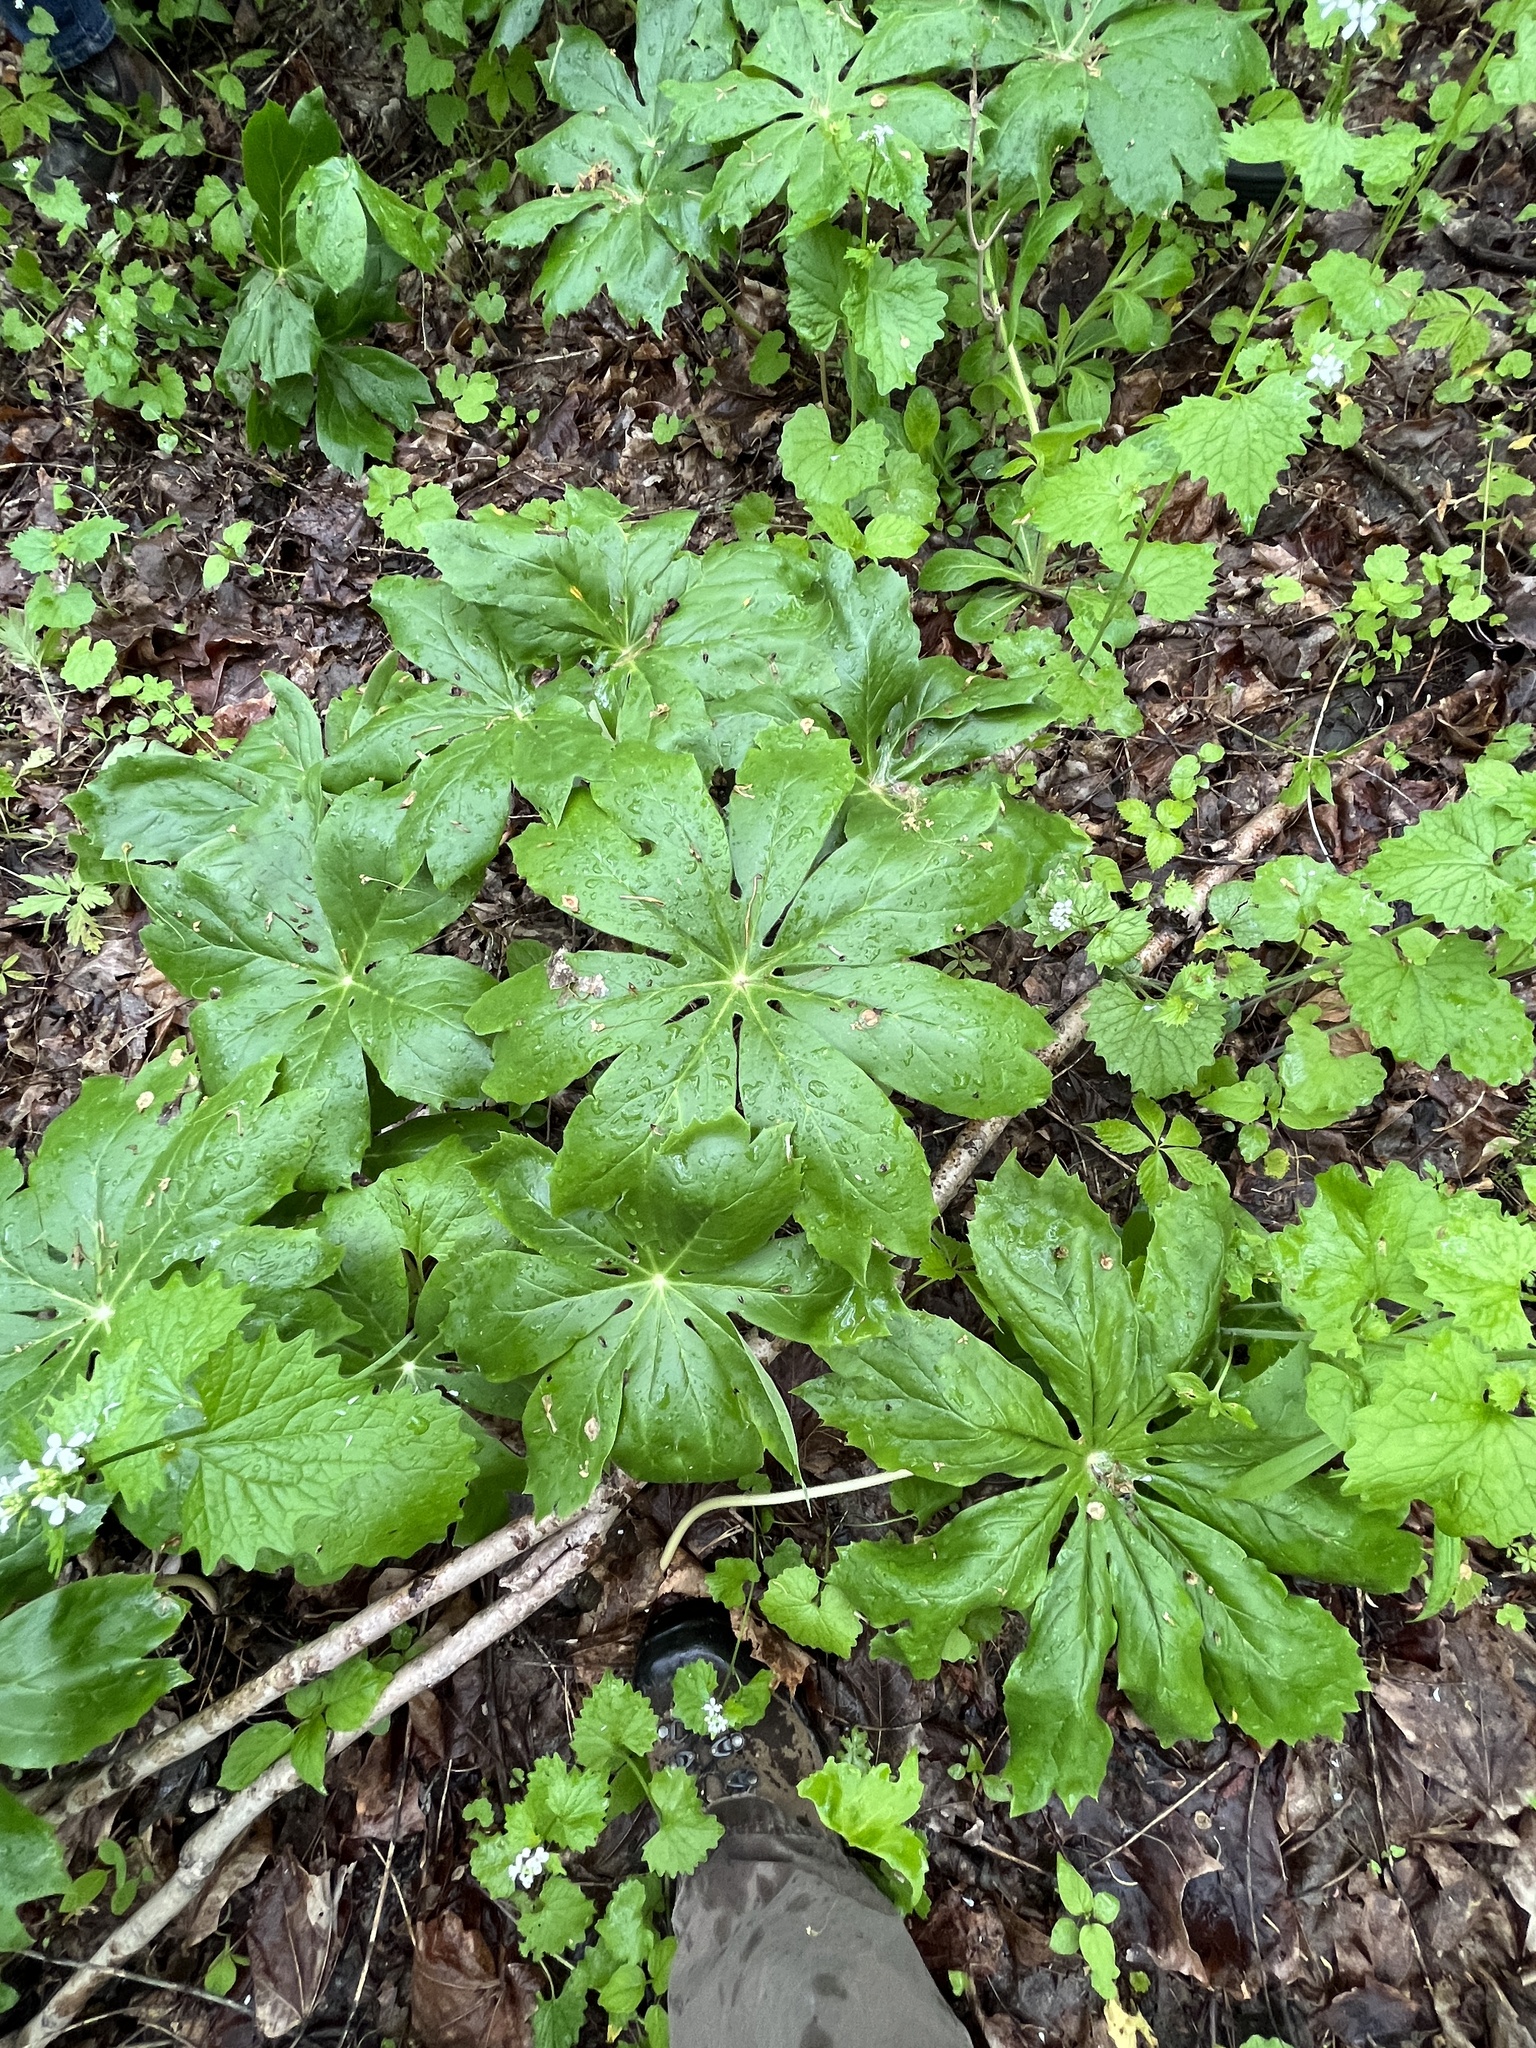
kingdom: Plantae
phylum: Tracheophyta
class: Magnoliopsida
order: Ranunculales
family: Berberidaceae
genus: Podophyllum
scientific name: Podophyllum peltatum
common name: Wild mandrake
